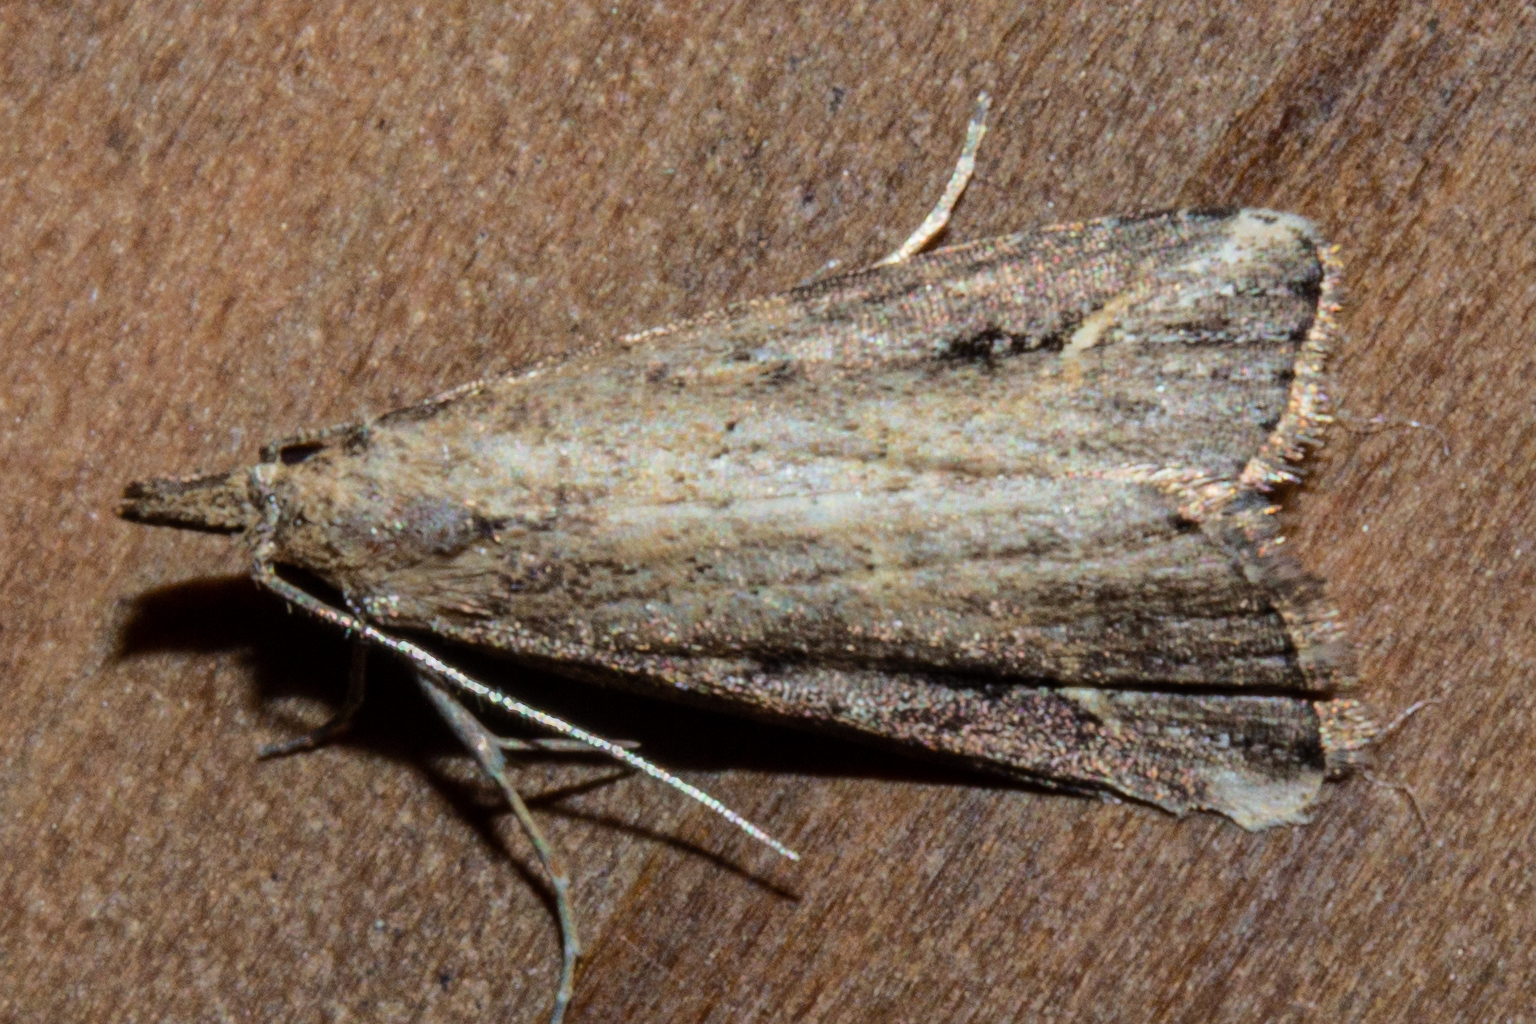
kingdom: Animalia
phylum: Arthropoda
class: Insecta
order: Lepidoptera
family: Erebidae
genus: Schrankia
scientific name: Schrankia costaestrigalis
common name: Pinion-streaked snout
